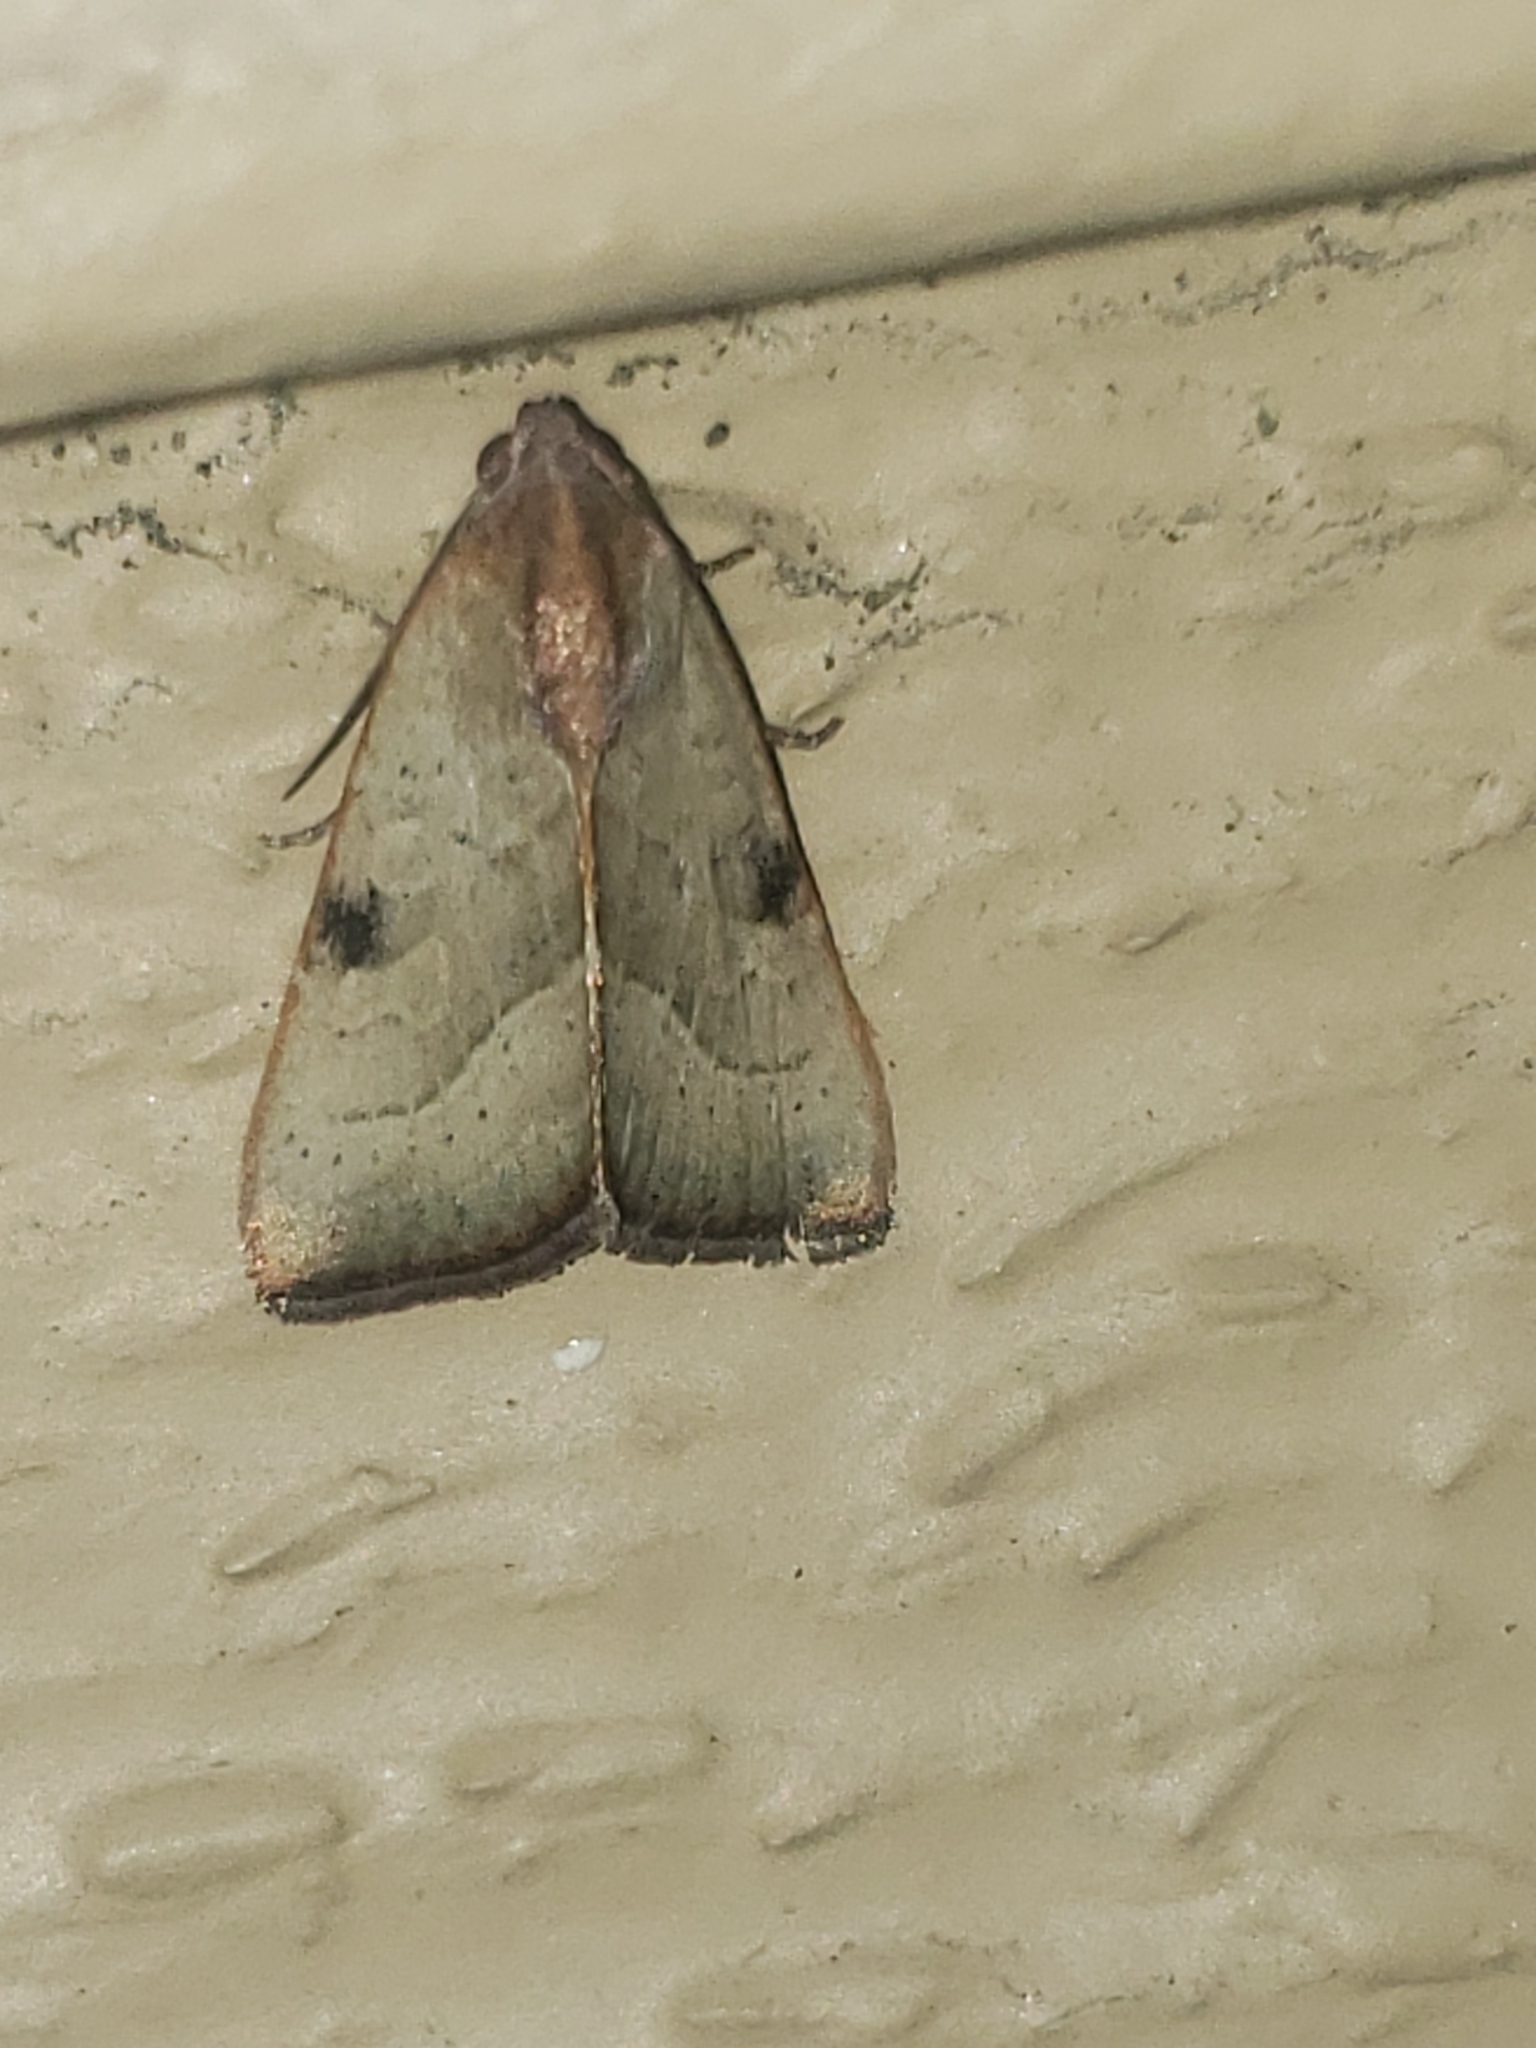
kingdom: Animalia
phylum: Arthropoda
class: Insecta
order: Lepidoptera
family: Noctuidae
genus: Galgula
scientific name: Galgula partita
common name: Wedgeling
